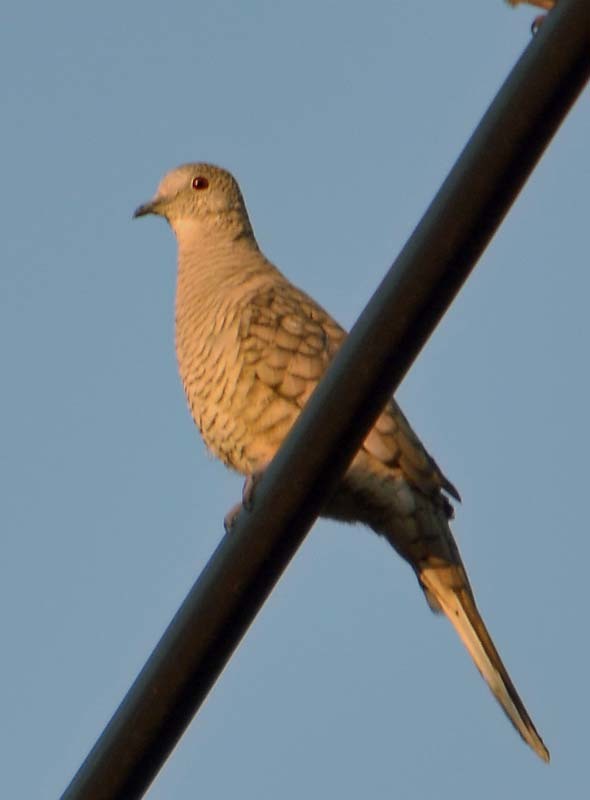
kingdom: Animalia
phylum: Chordata
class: Aves
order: Columbiformes
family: Columbidae
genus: Columbina
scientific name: Columbina inca
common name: Inca dove
